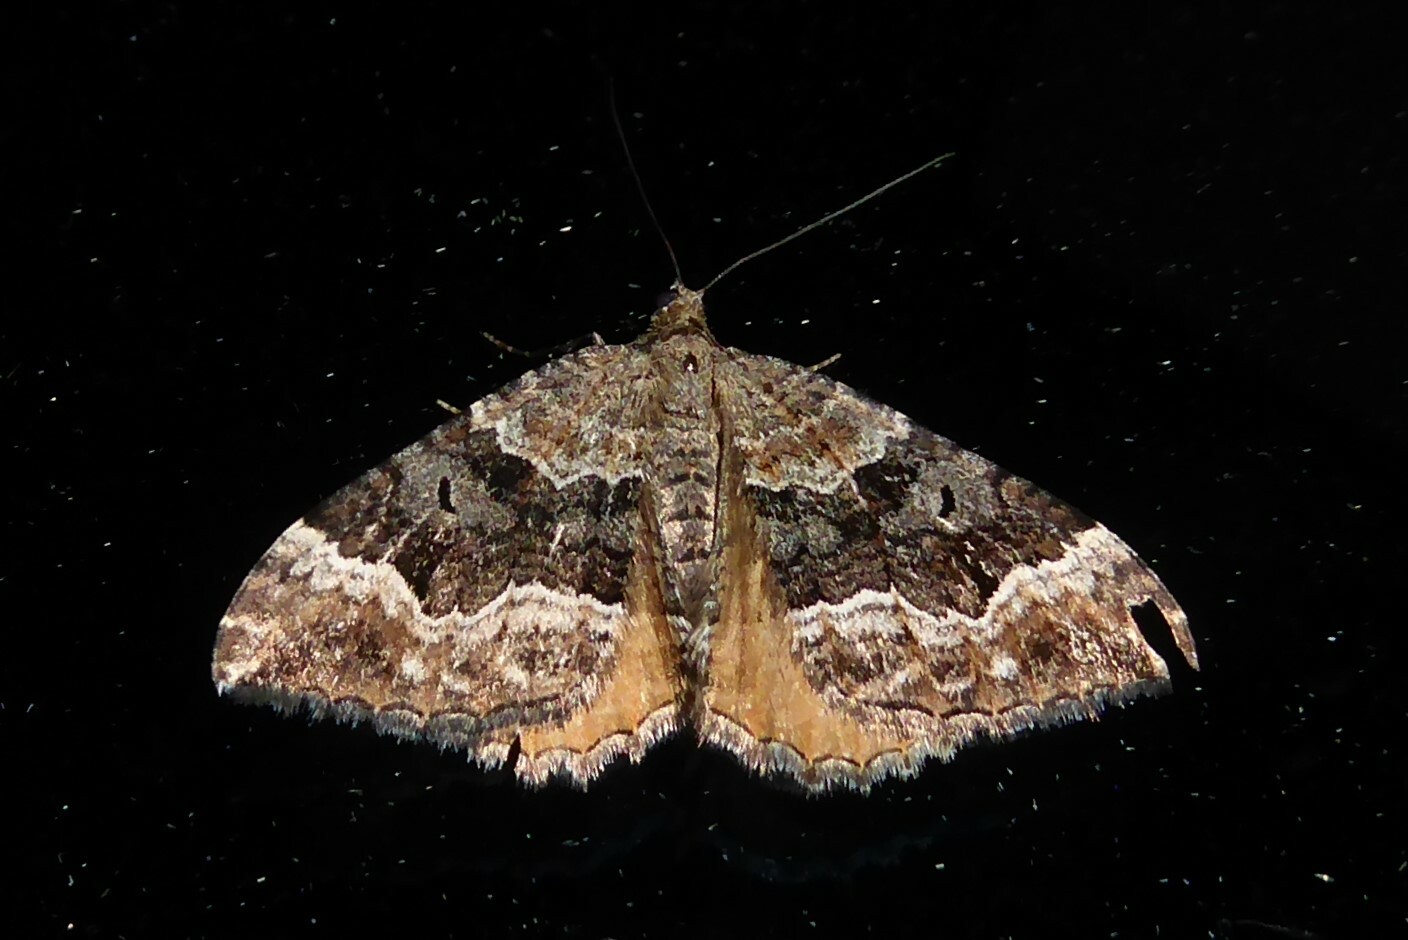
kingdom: Animalia
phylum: Arthropoda
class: Insecta
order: Lepidoptera
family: Geometridae
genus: Hydriomena
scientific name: Hydriomena deltoidata
